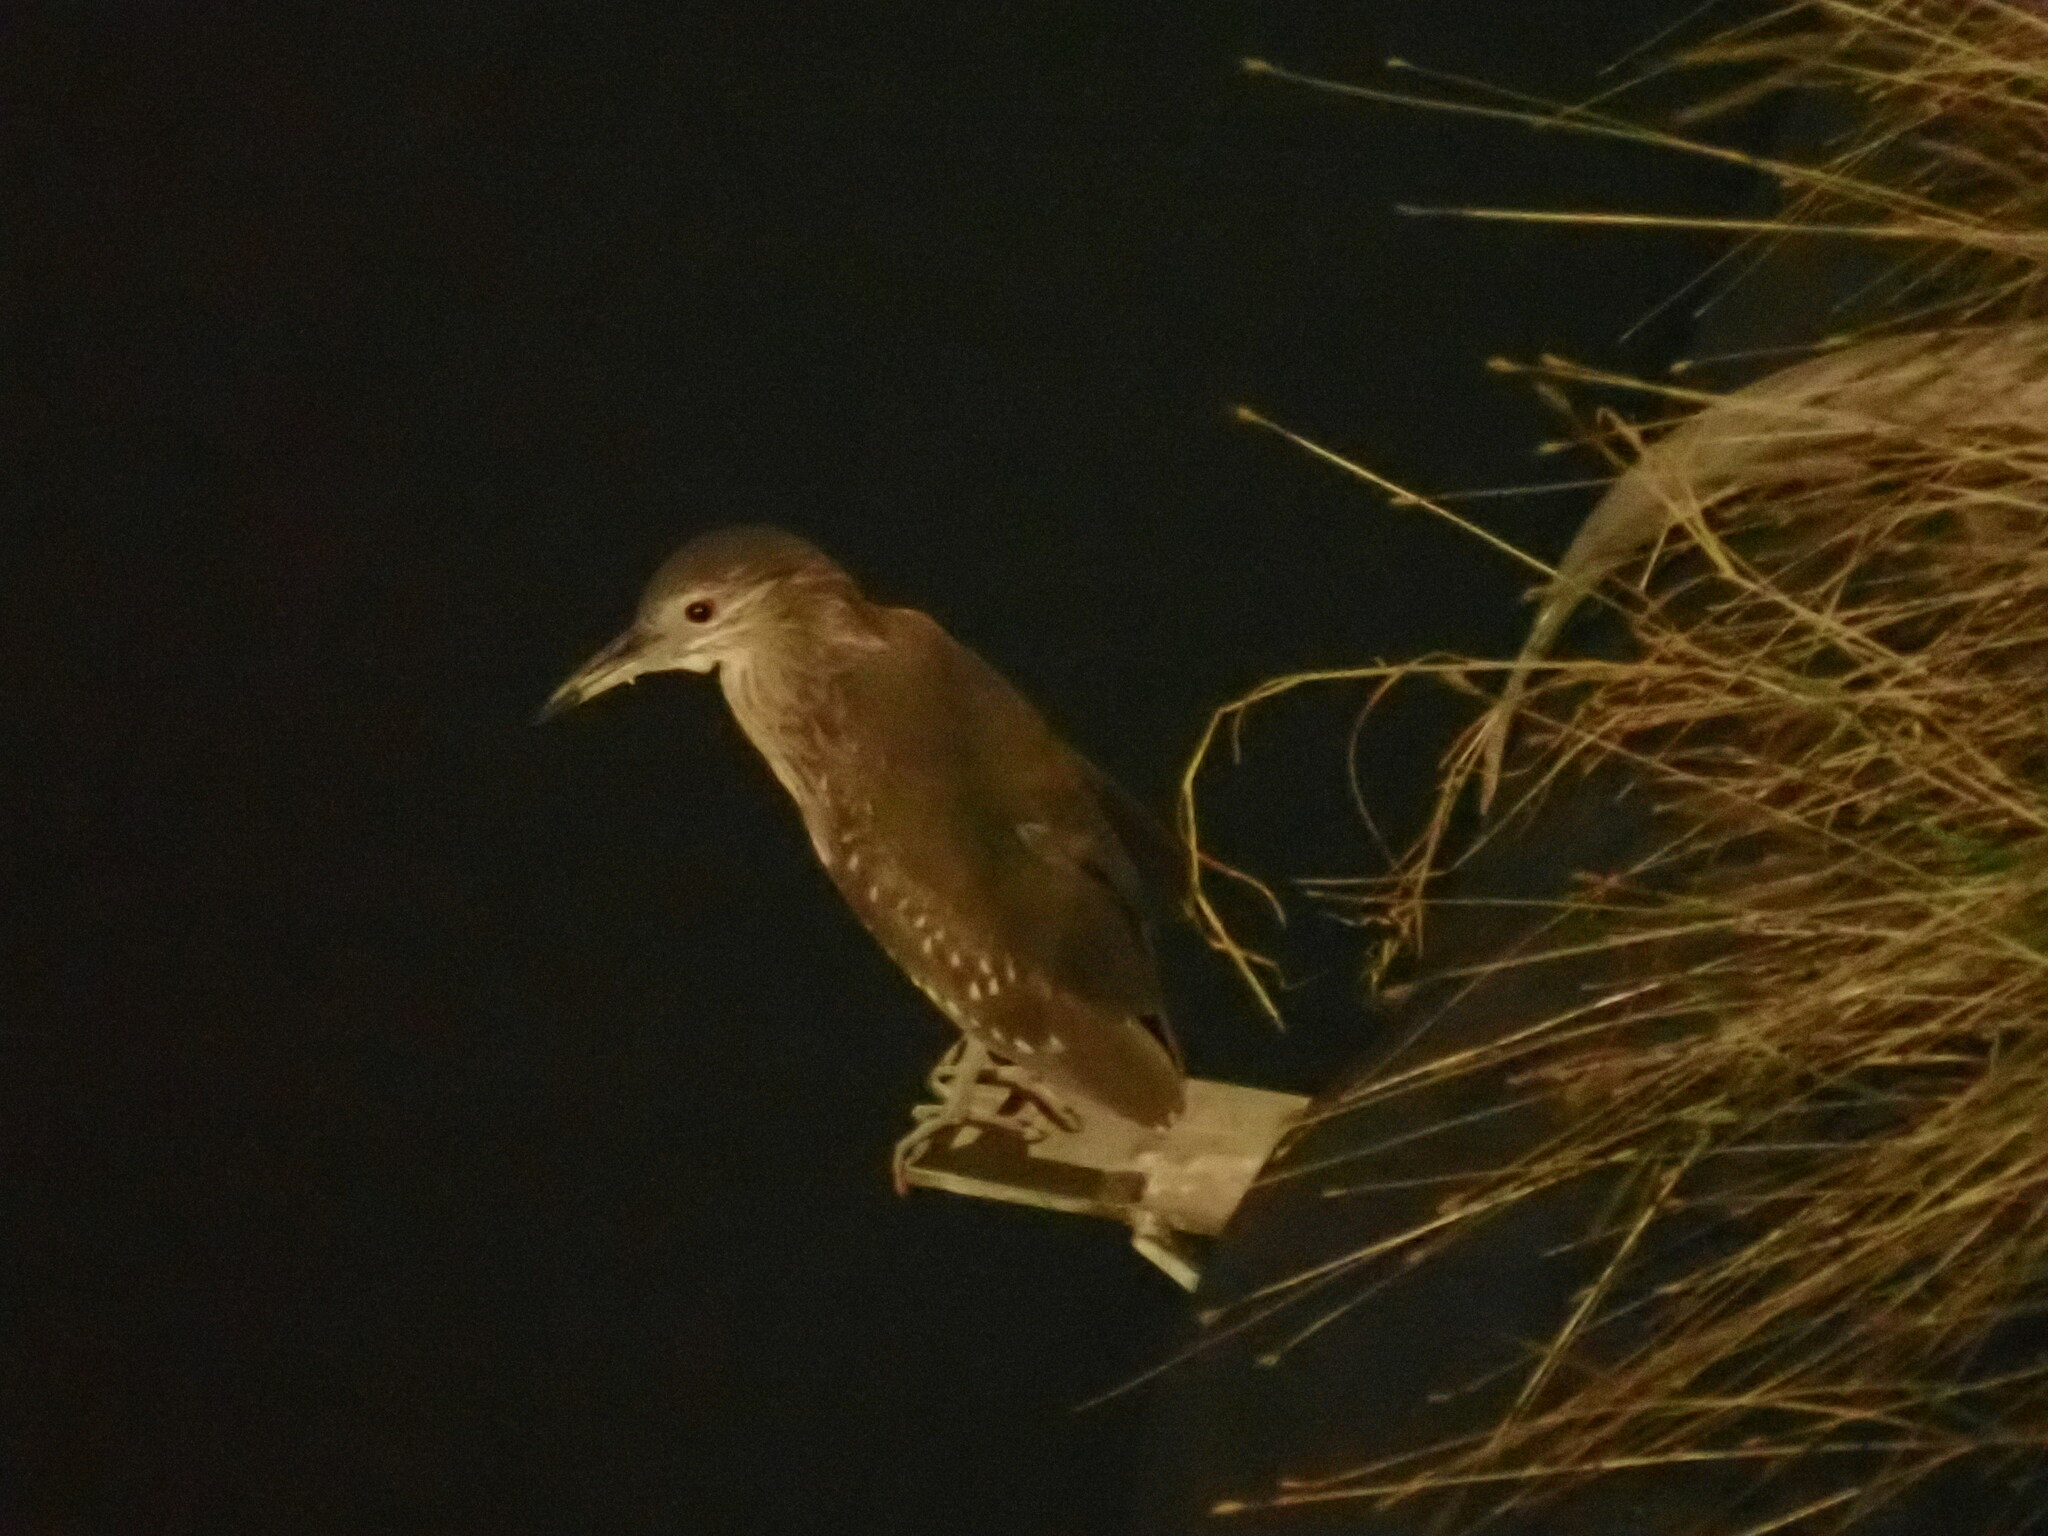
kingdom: Animalia
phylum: Chordata
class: Aves
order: Pelecaniformes
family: Ardeidae
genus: Nycticorax
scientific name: Nycticorax nycticorax
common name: Black-crowned night heron
